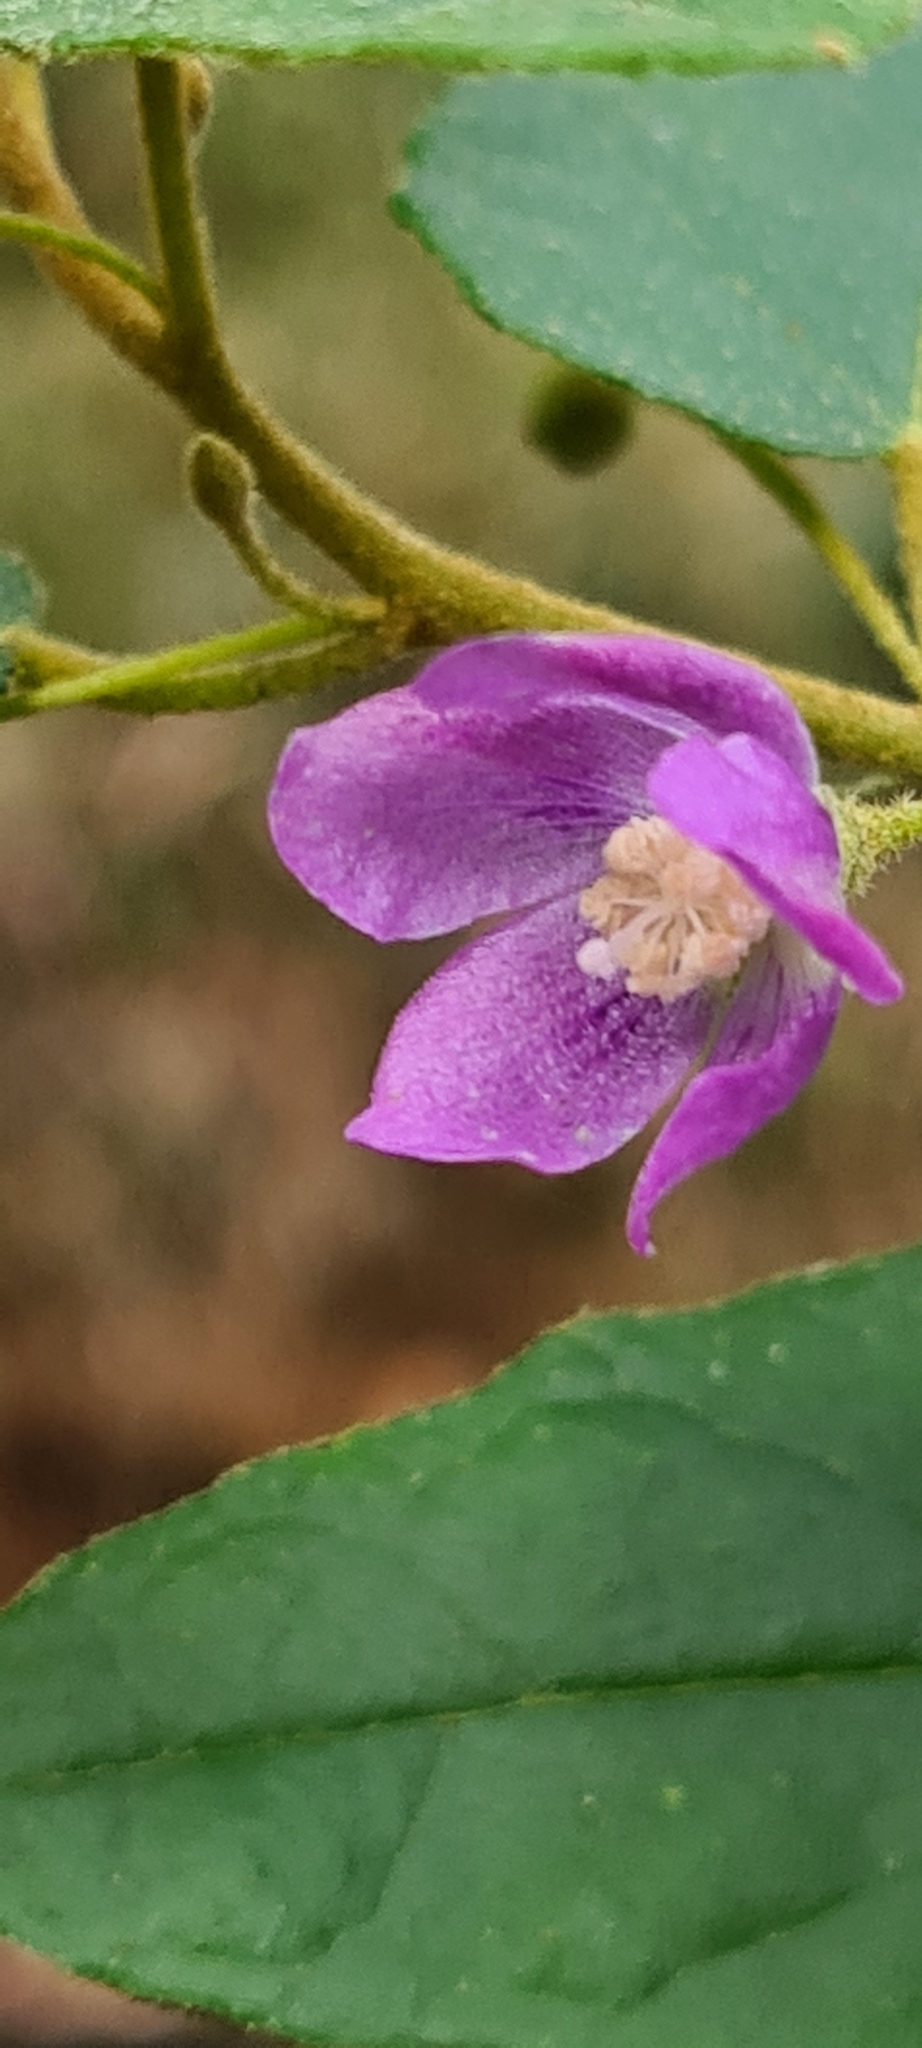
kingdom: Plantae
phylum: Tracheophyta
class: Magnoliopsida
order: Malvales
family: Malvaceae
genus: Howittia
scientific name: Howittia trilocularis
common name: Blue howittia
